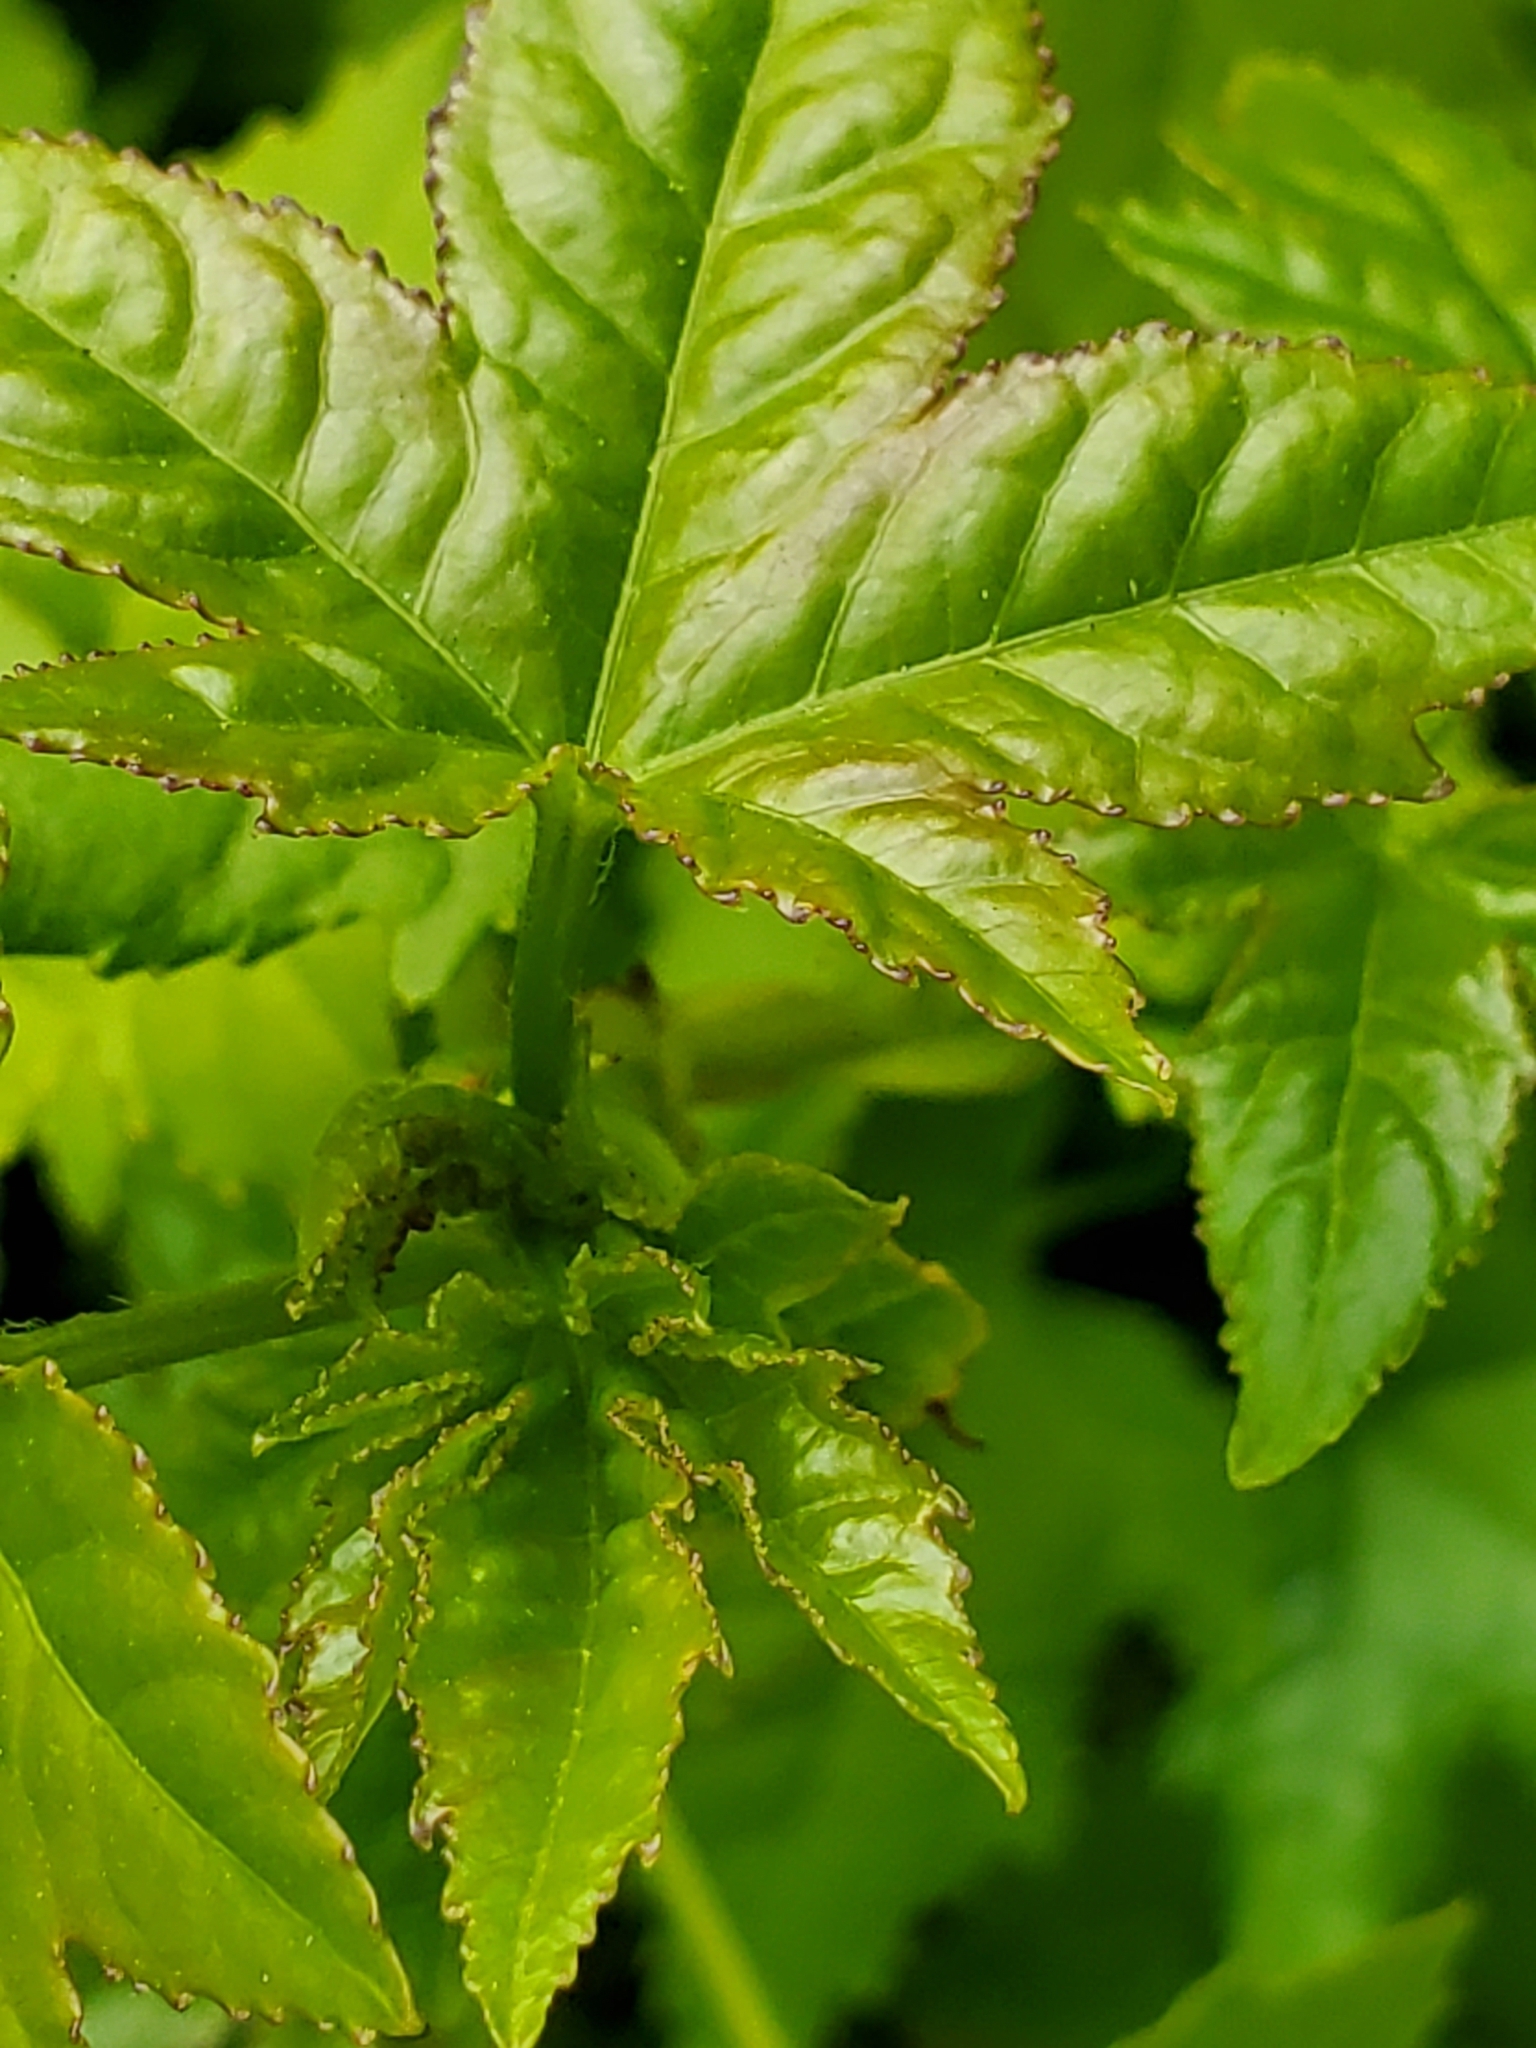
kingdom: Plantae
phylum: Tracheophyta
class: Magnoliopsida
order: Saxifragales
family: Altingiaceae
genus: Liquidambar
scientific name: Liquidambar styraciflua
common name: Sweet gum
